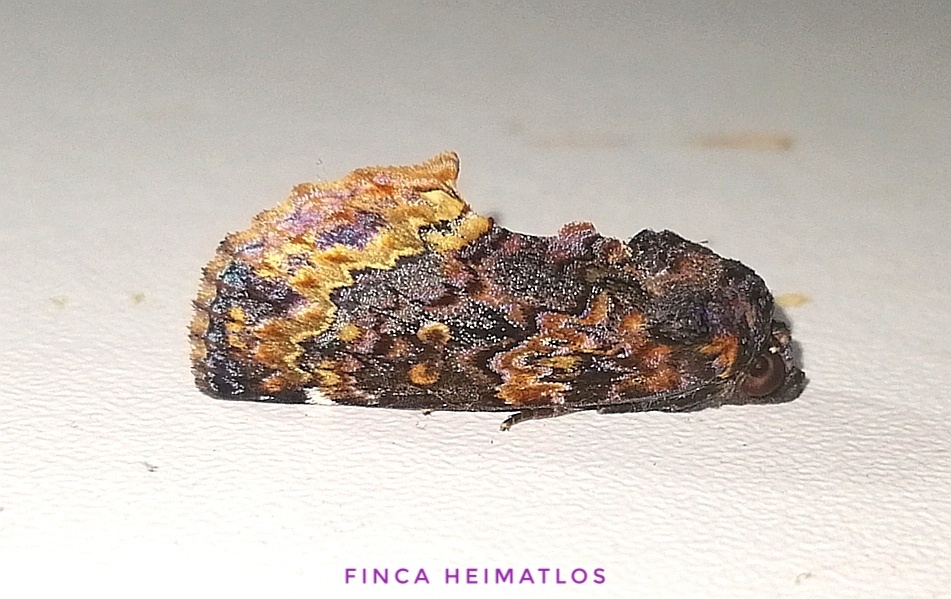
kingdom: Animalia
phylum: Arthropoda
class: Insecta
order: Lepidoptera
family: Erebidae
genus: Gonodonta
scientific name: Gonodonta uxor
